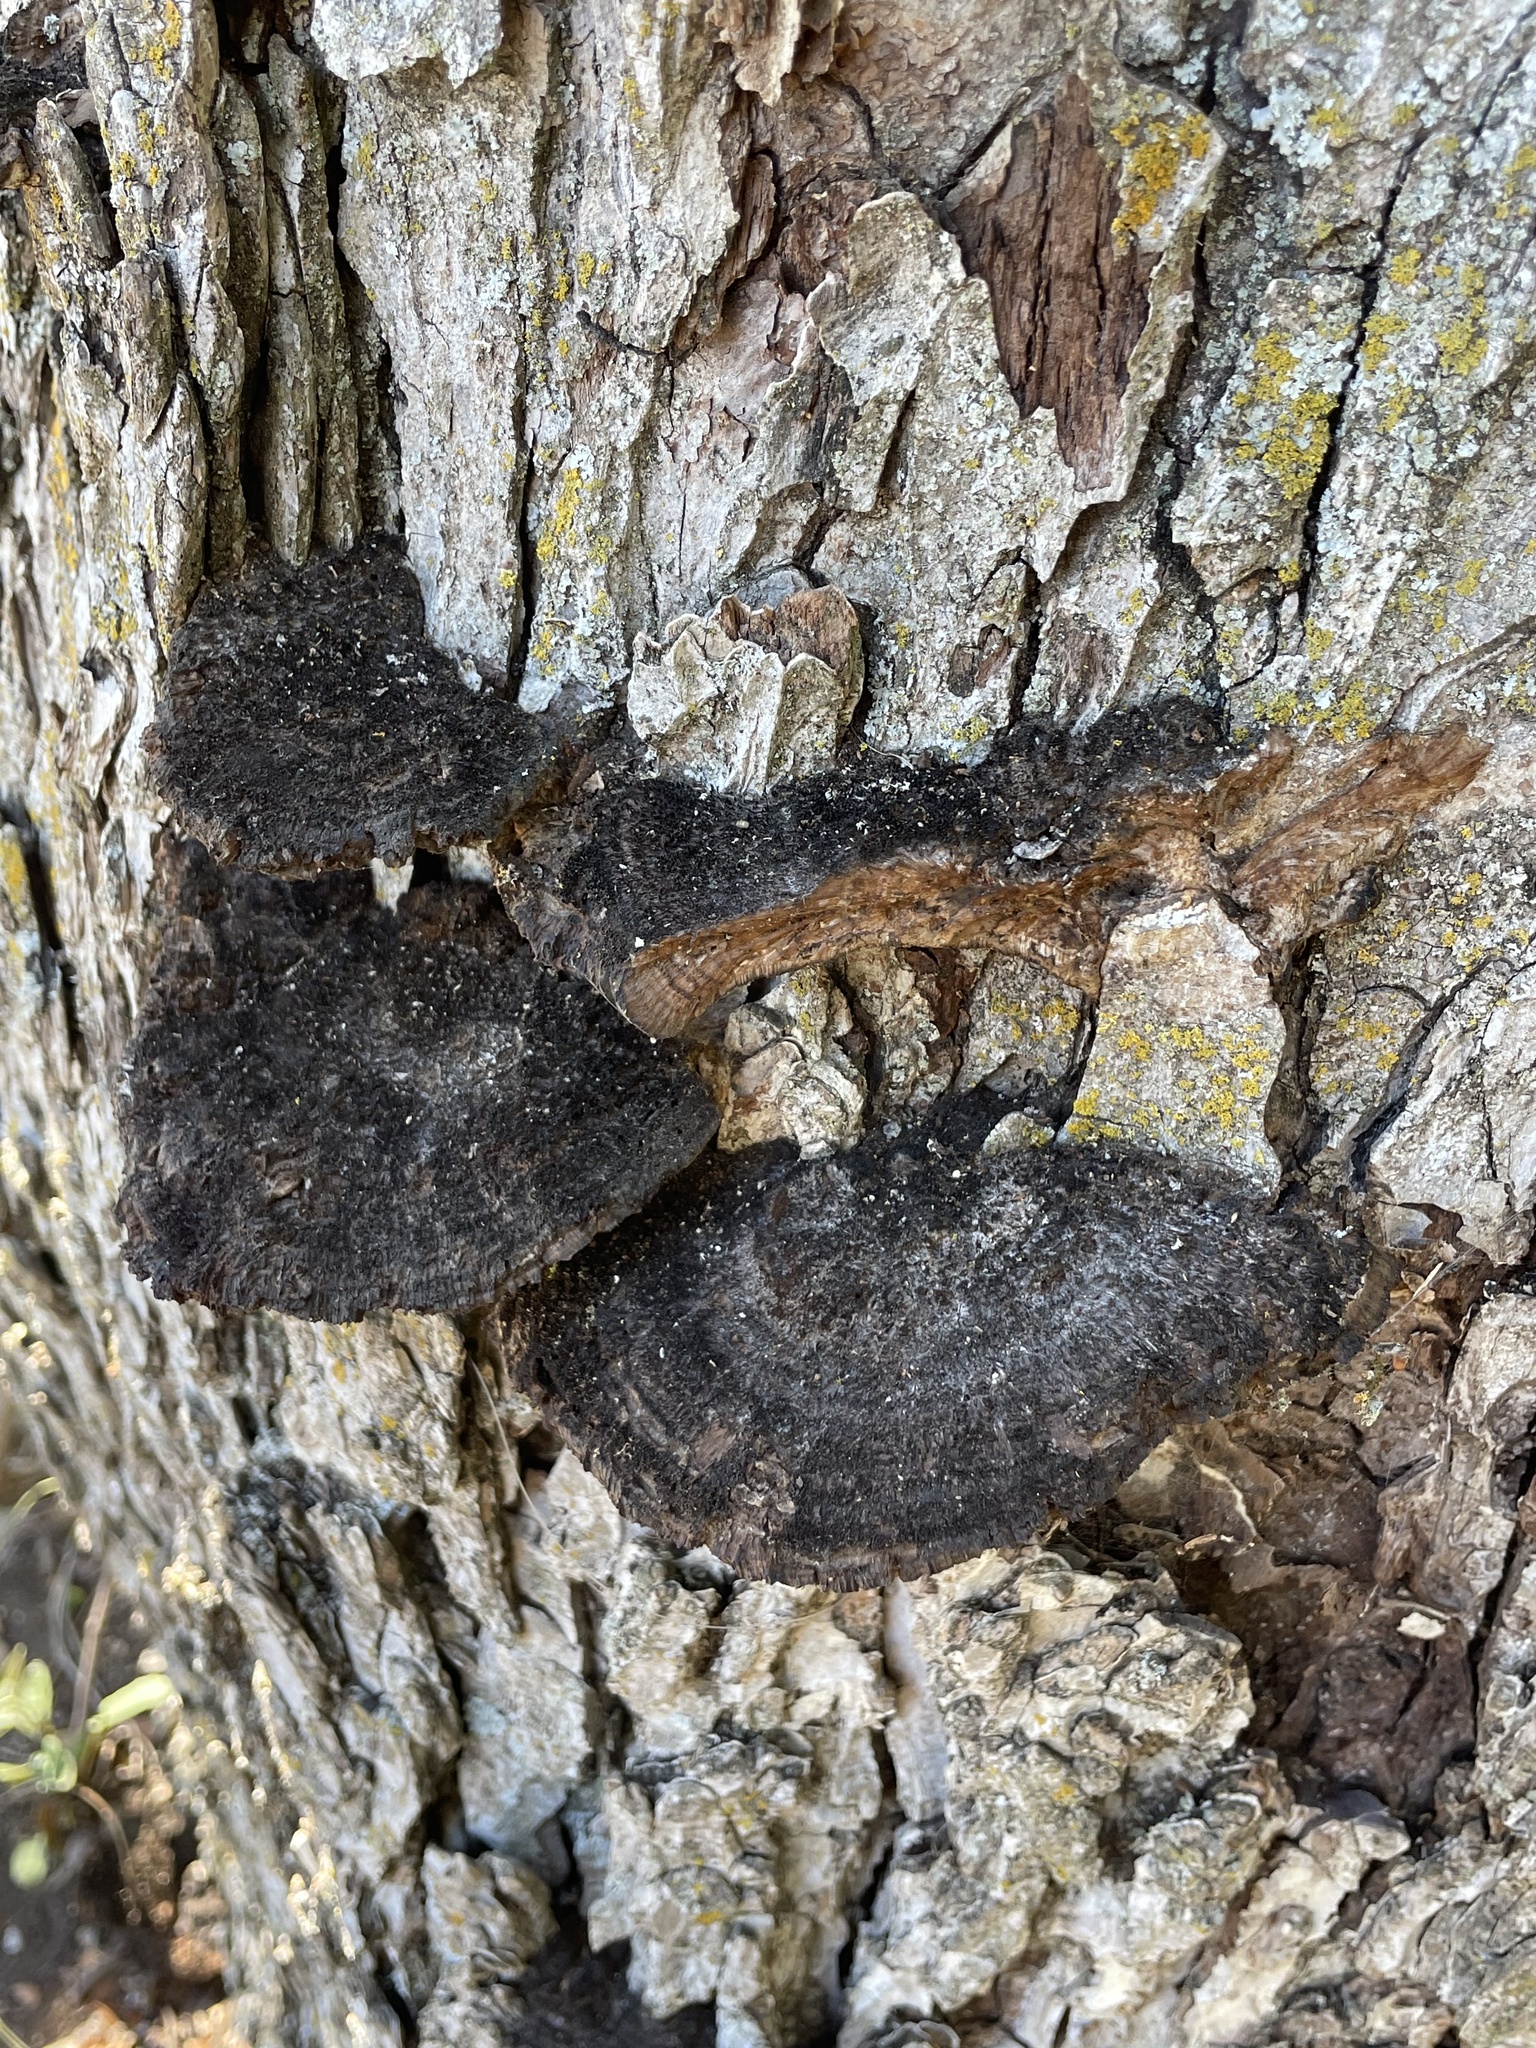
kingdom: Fungi
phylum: Basidiomycota
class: Agaricomycetes
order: Polyporales
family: Cerrenaceae
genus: Cerrena
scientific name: Cerrena hydnoides
